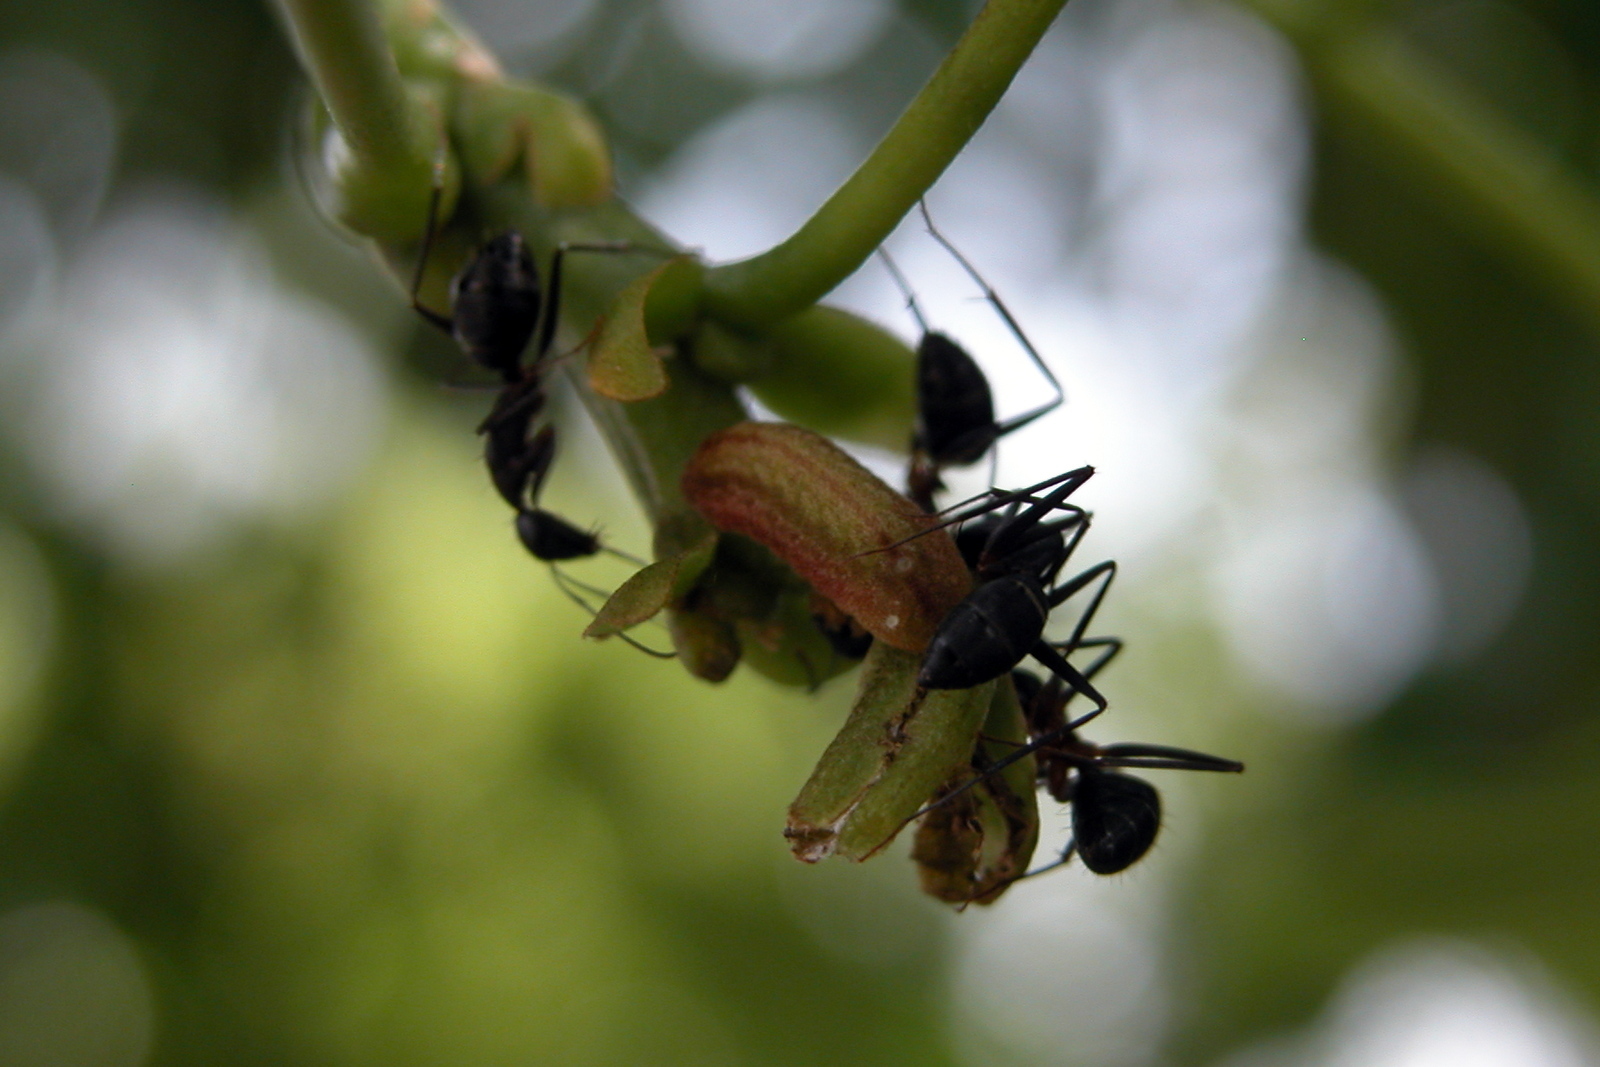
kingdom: Animalia
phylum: Arthropoda
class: Insecta
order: Lepidoptera
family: Lycaenidae
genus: Jamides
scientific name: Jamides celeno
